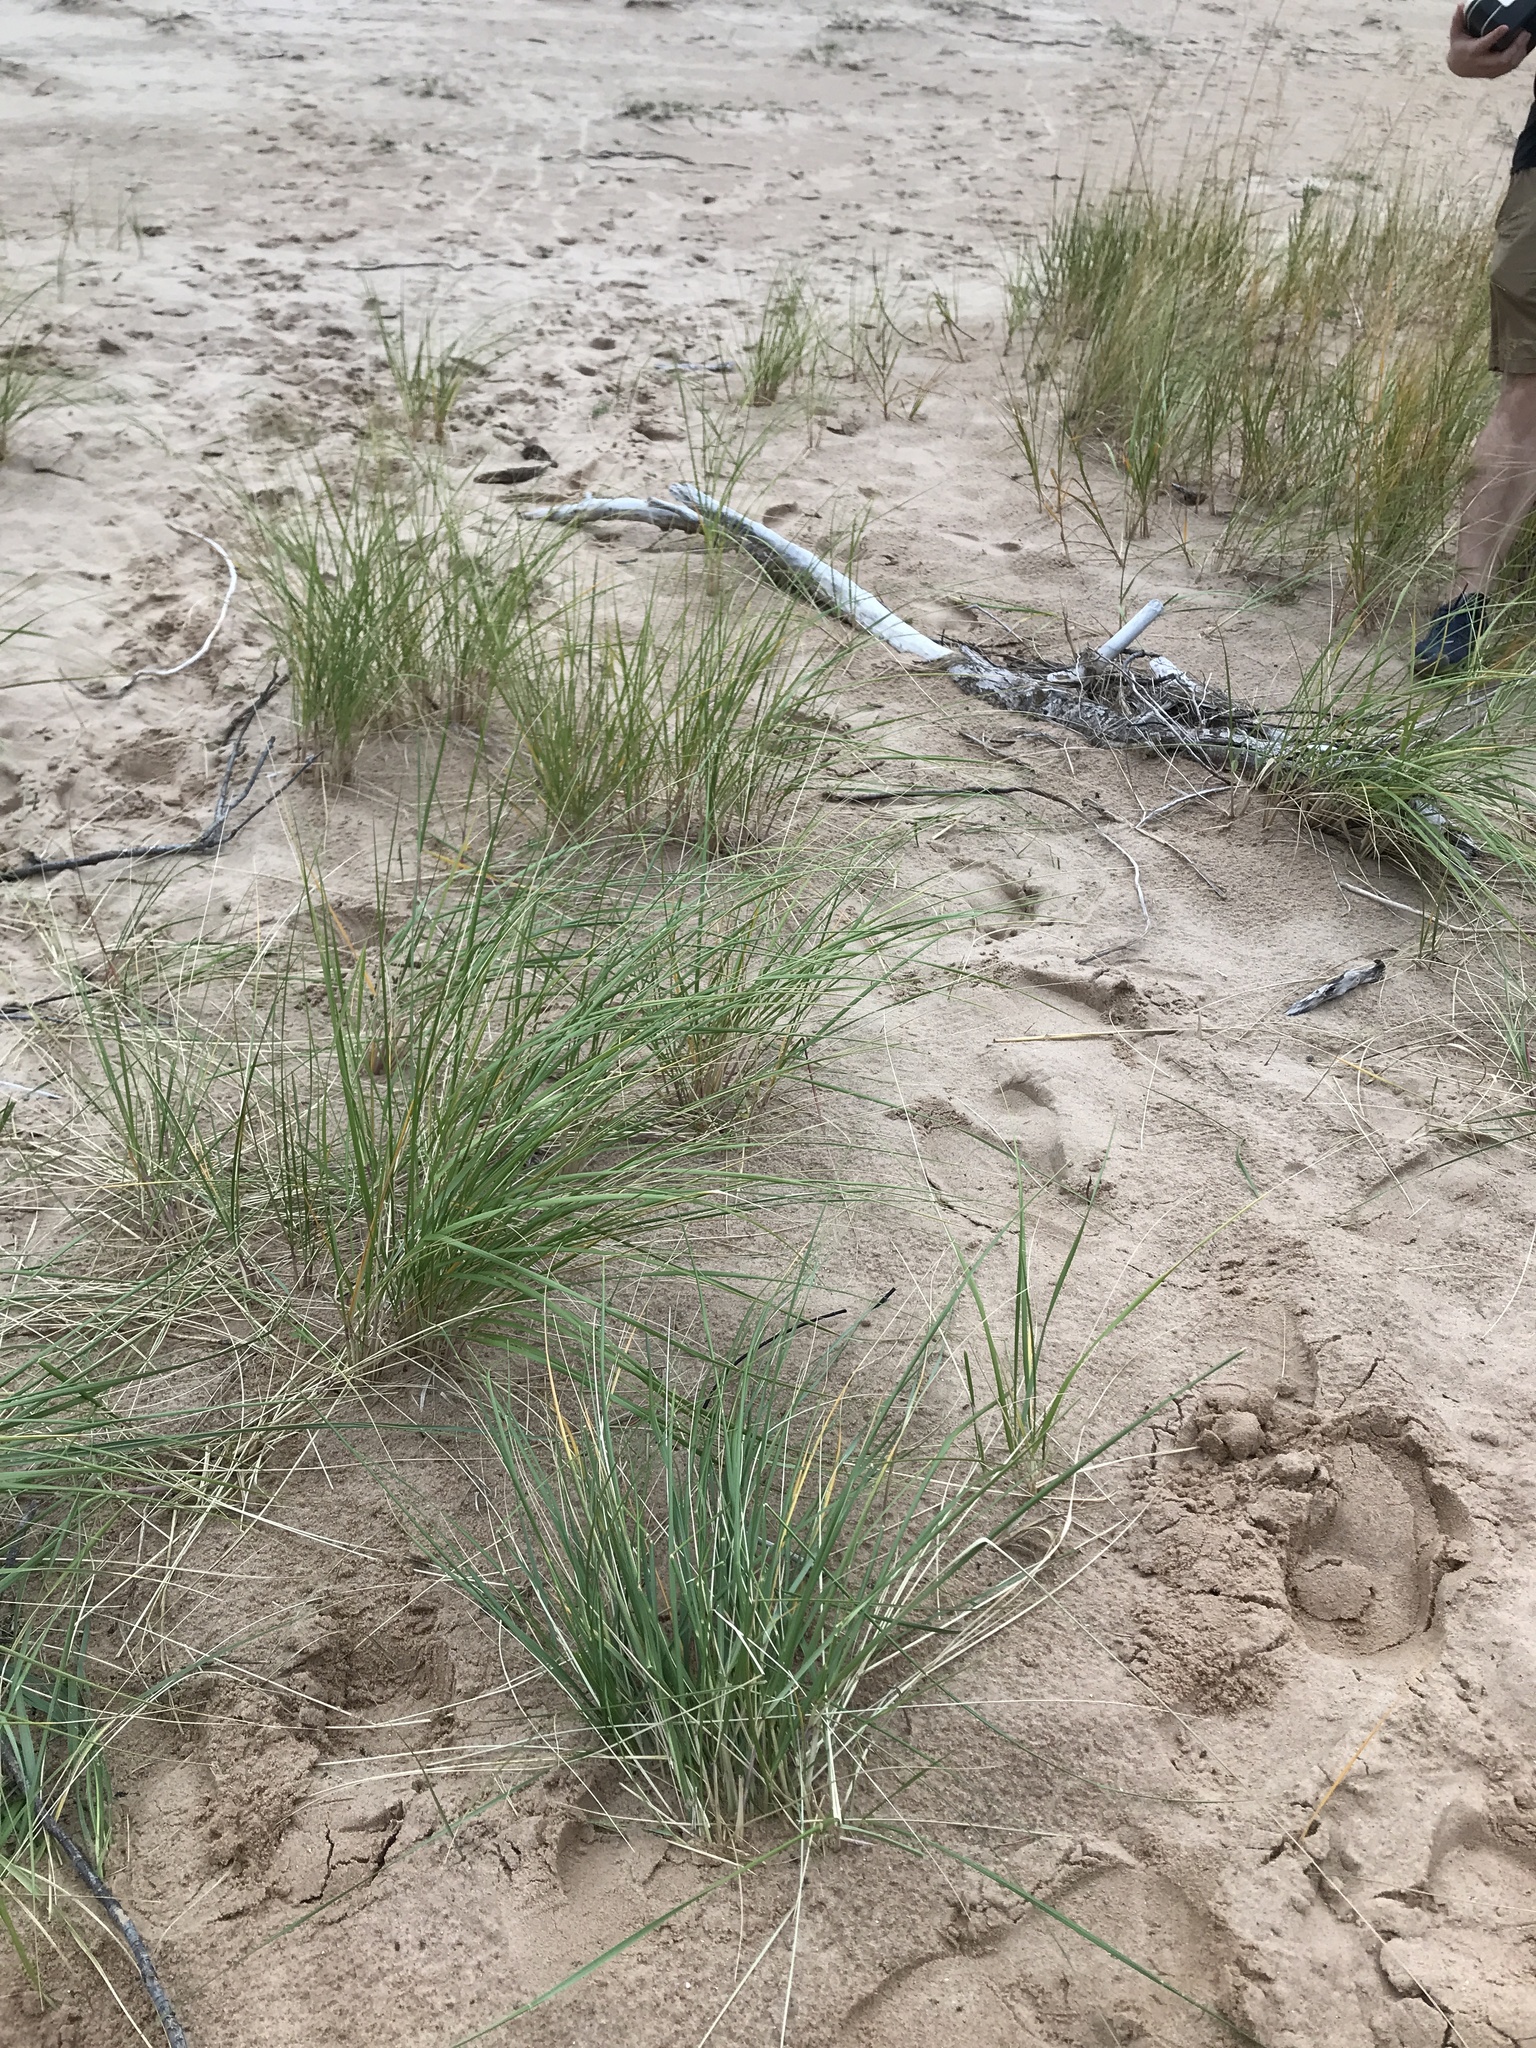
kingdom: Plantae
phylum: Tracheophyta
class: Liliopsida
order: Poales
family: Poaceae
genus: Calamagrostis
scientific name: Calamagrostis breviligulata
